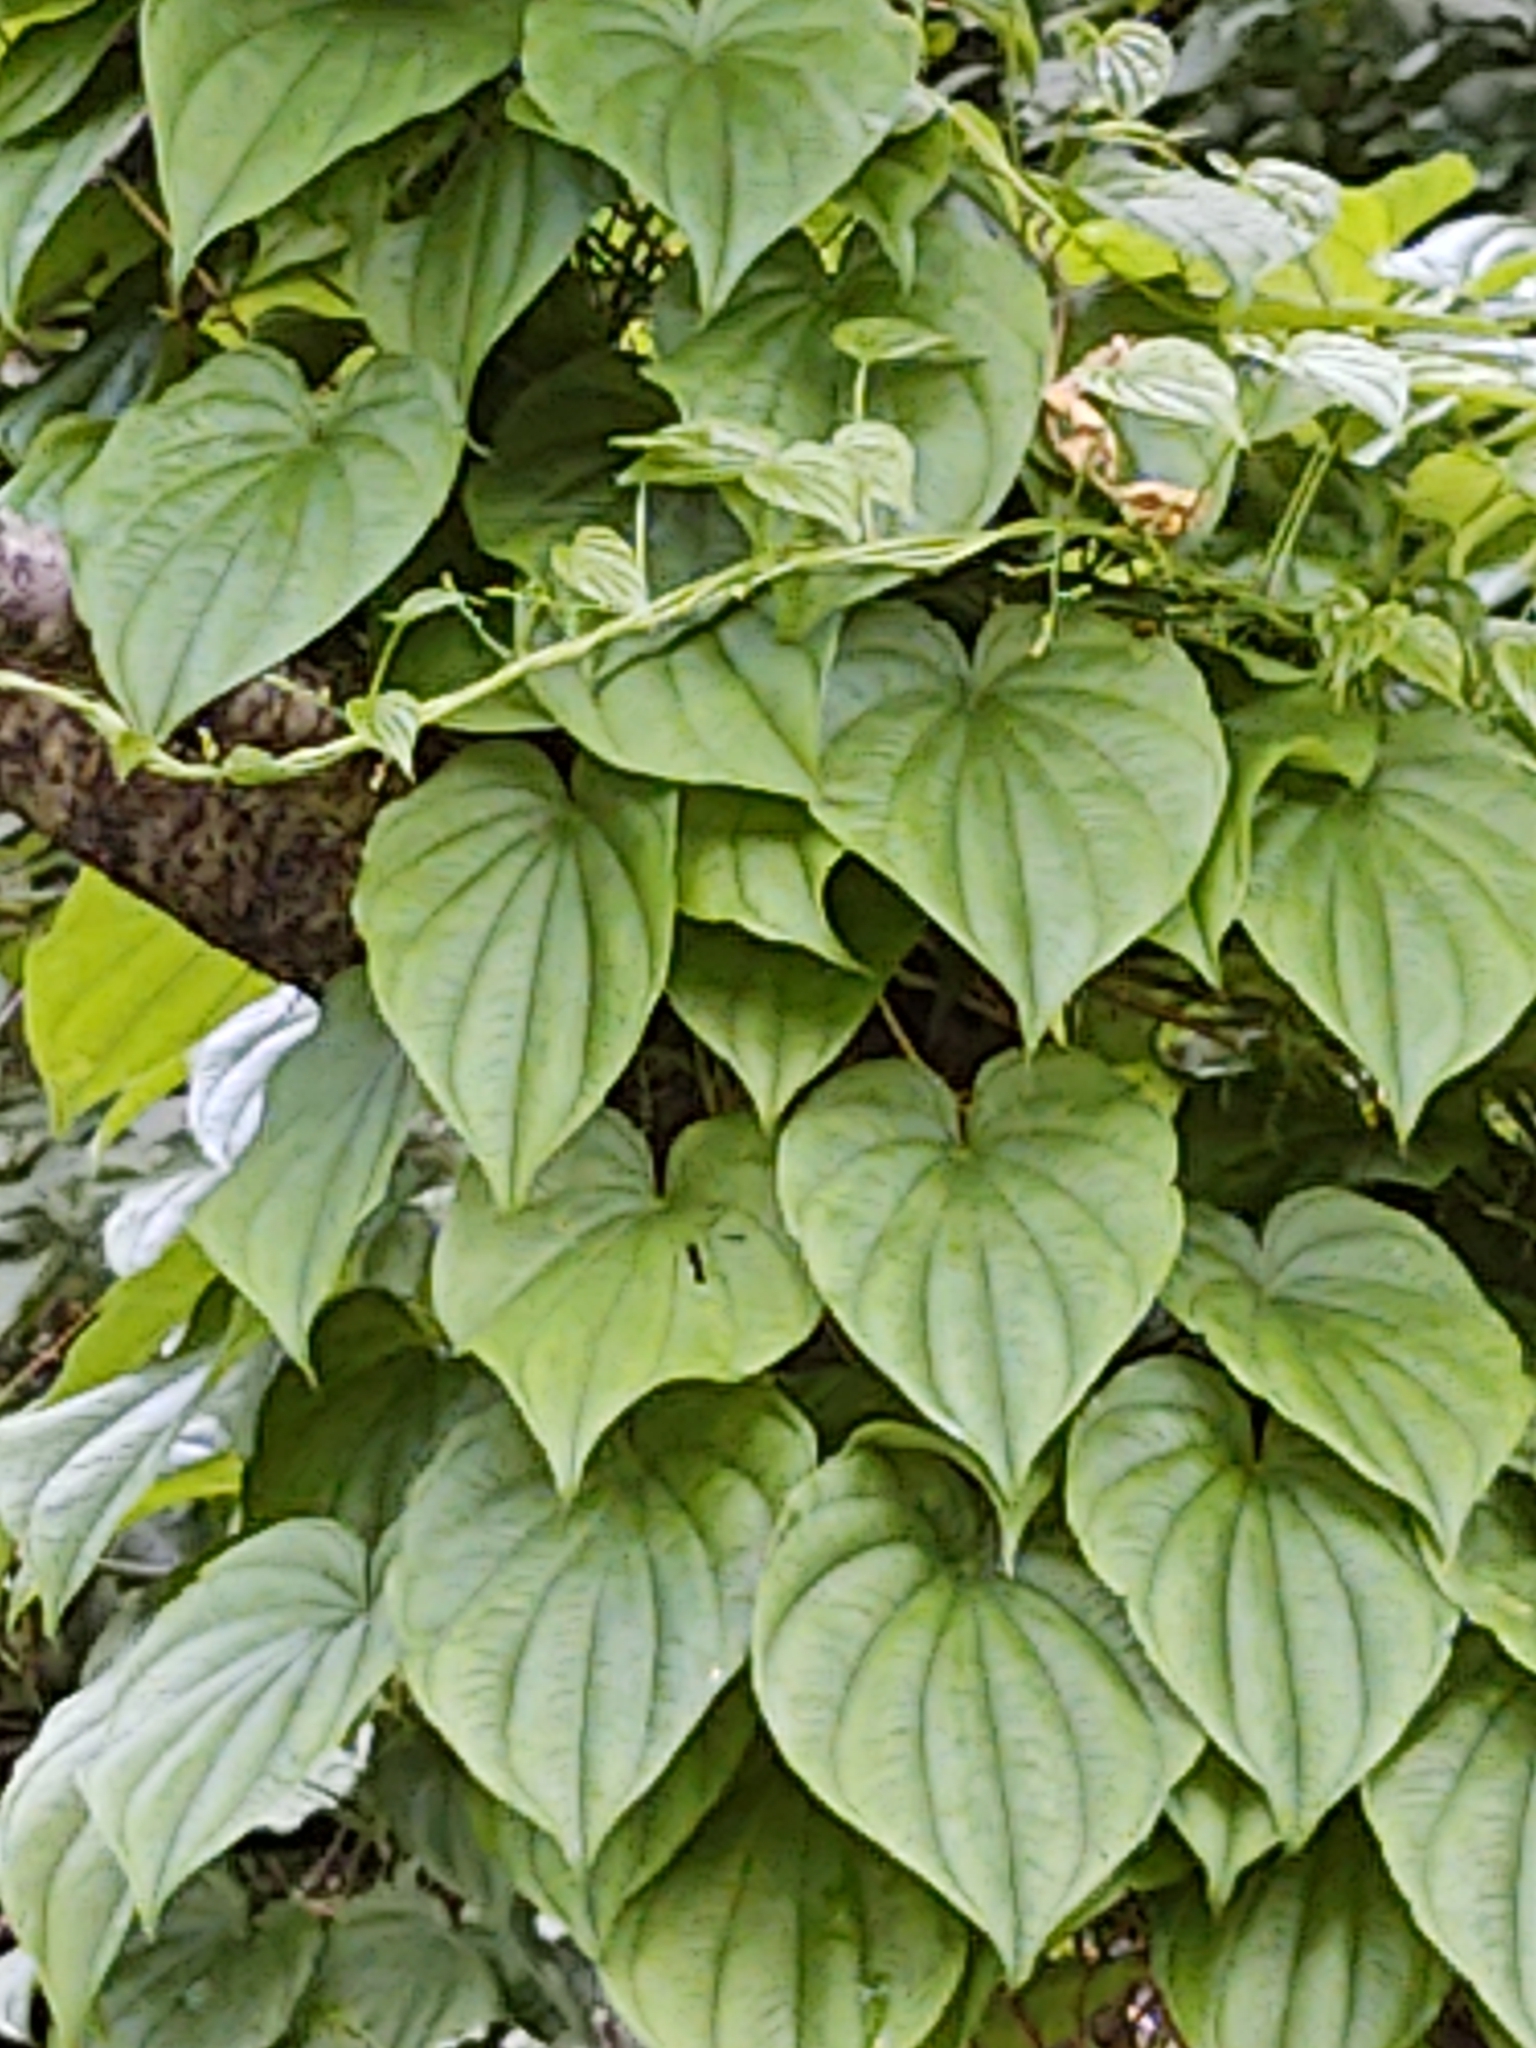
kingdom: Plantae
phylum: Tracheophyta
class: Liliopsida
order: Dioscoreales
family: Dioscoreaceae
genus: Dioscorea
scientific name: Dioscorea villosa
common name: Wild yam
